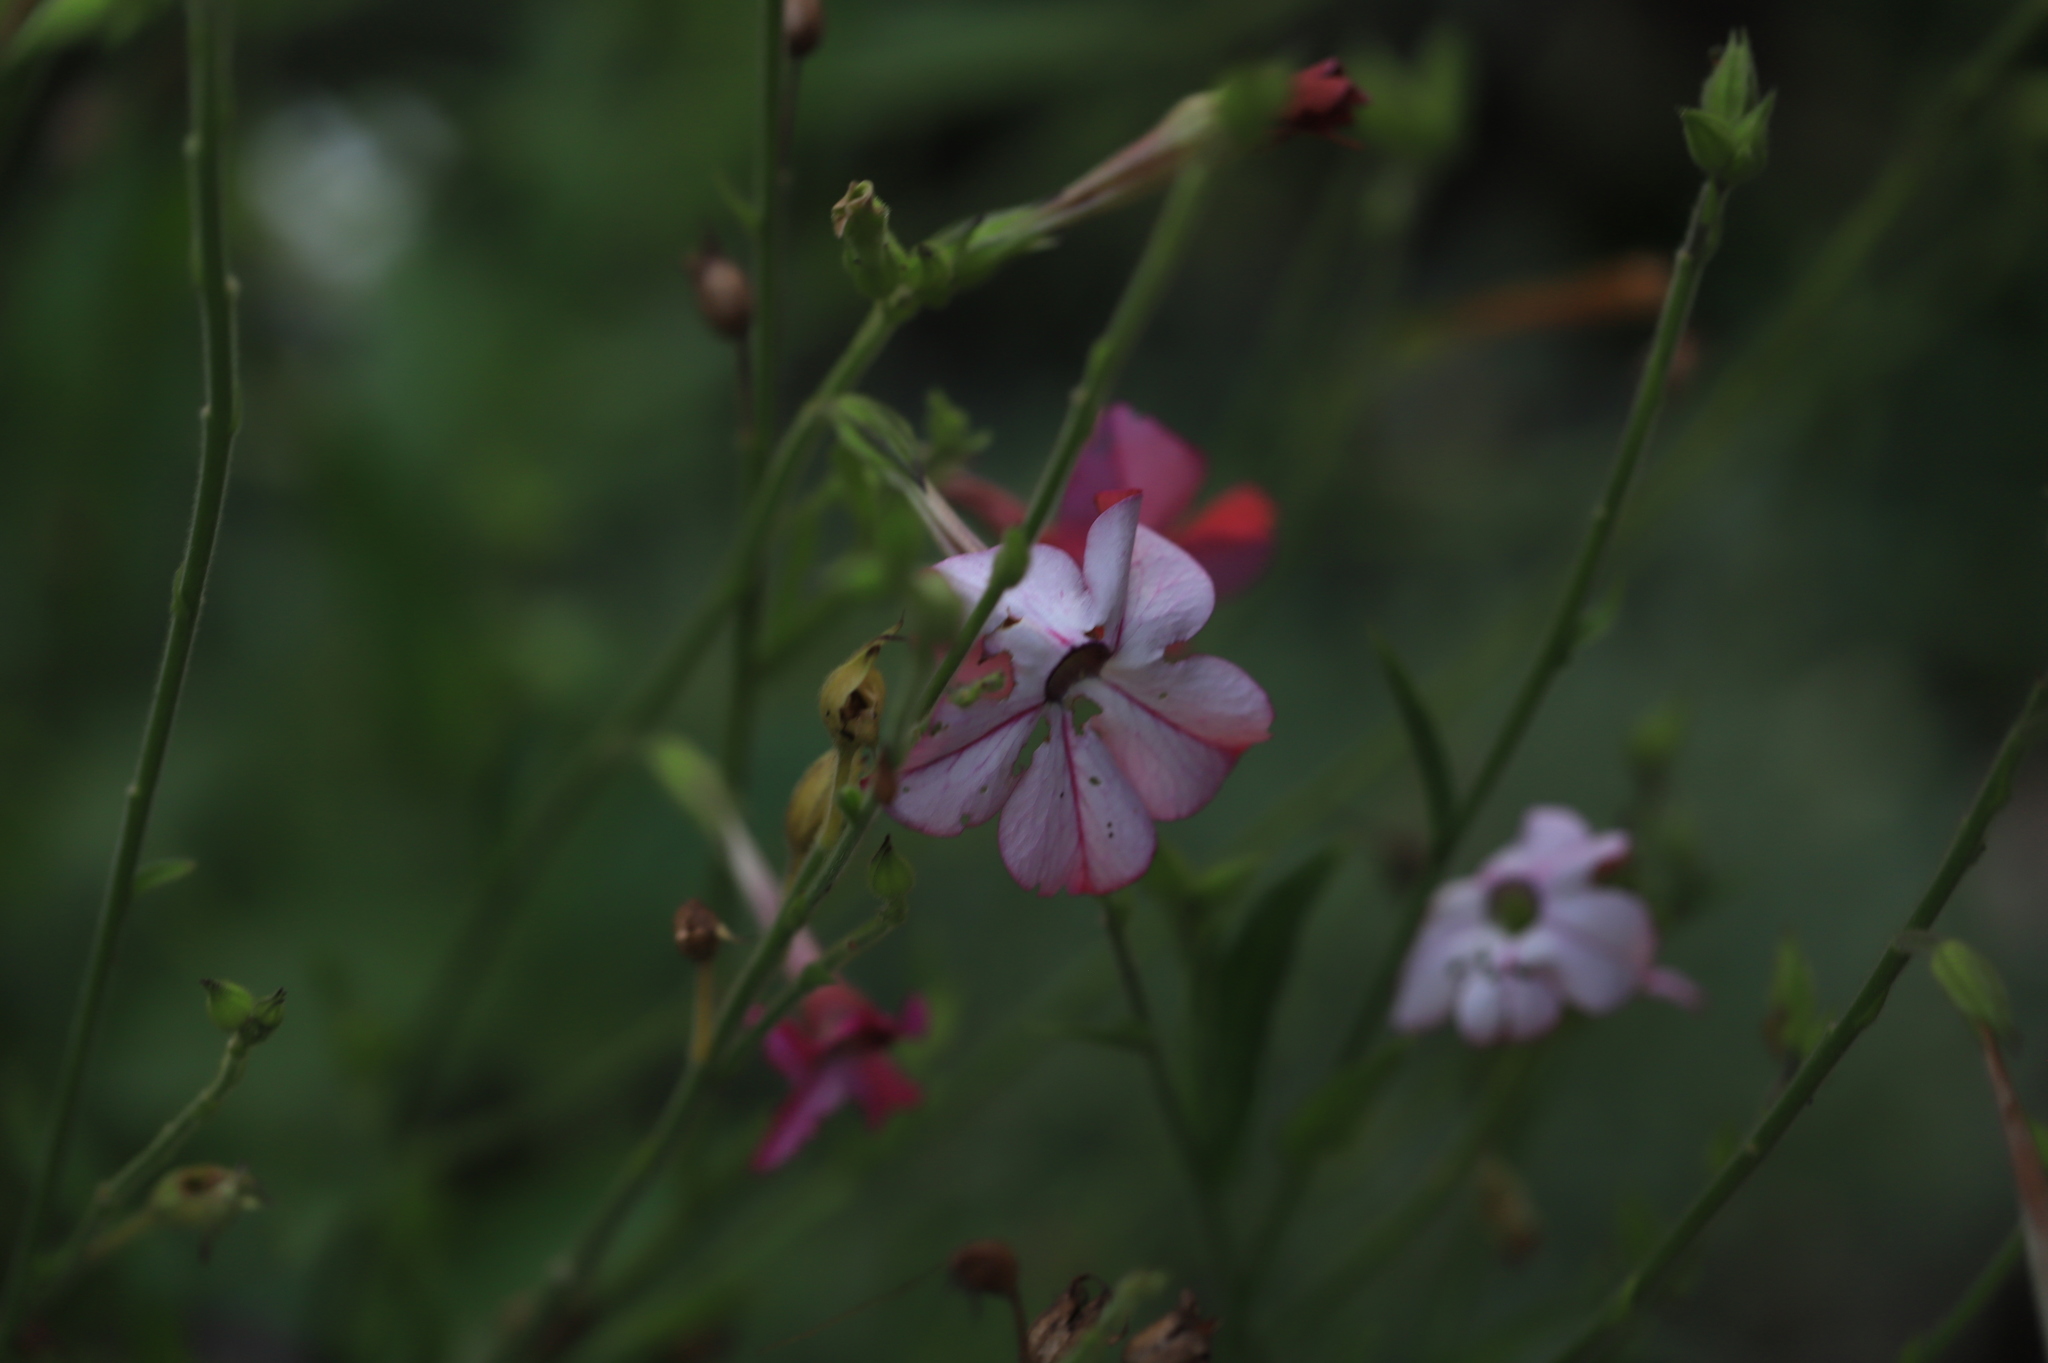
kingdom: Animalia
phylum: Arthropoda
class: Insecta
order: Lepidoptera
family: Noctuidae
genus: Chloridea
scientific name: Chloridea virescens
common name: Tobacco budworm
